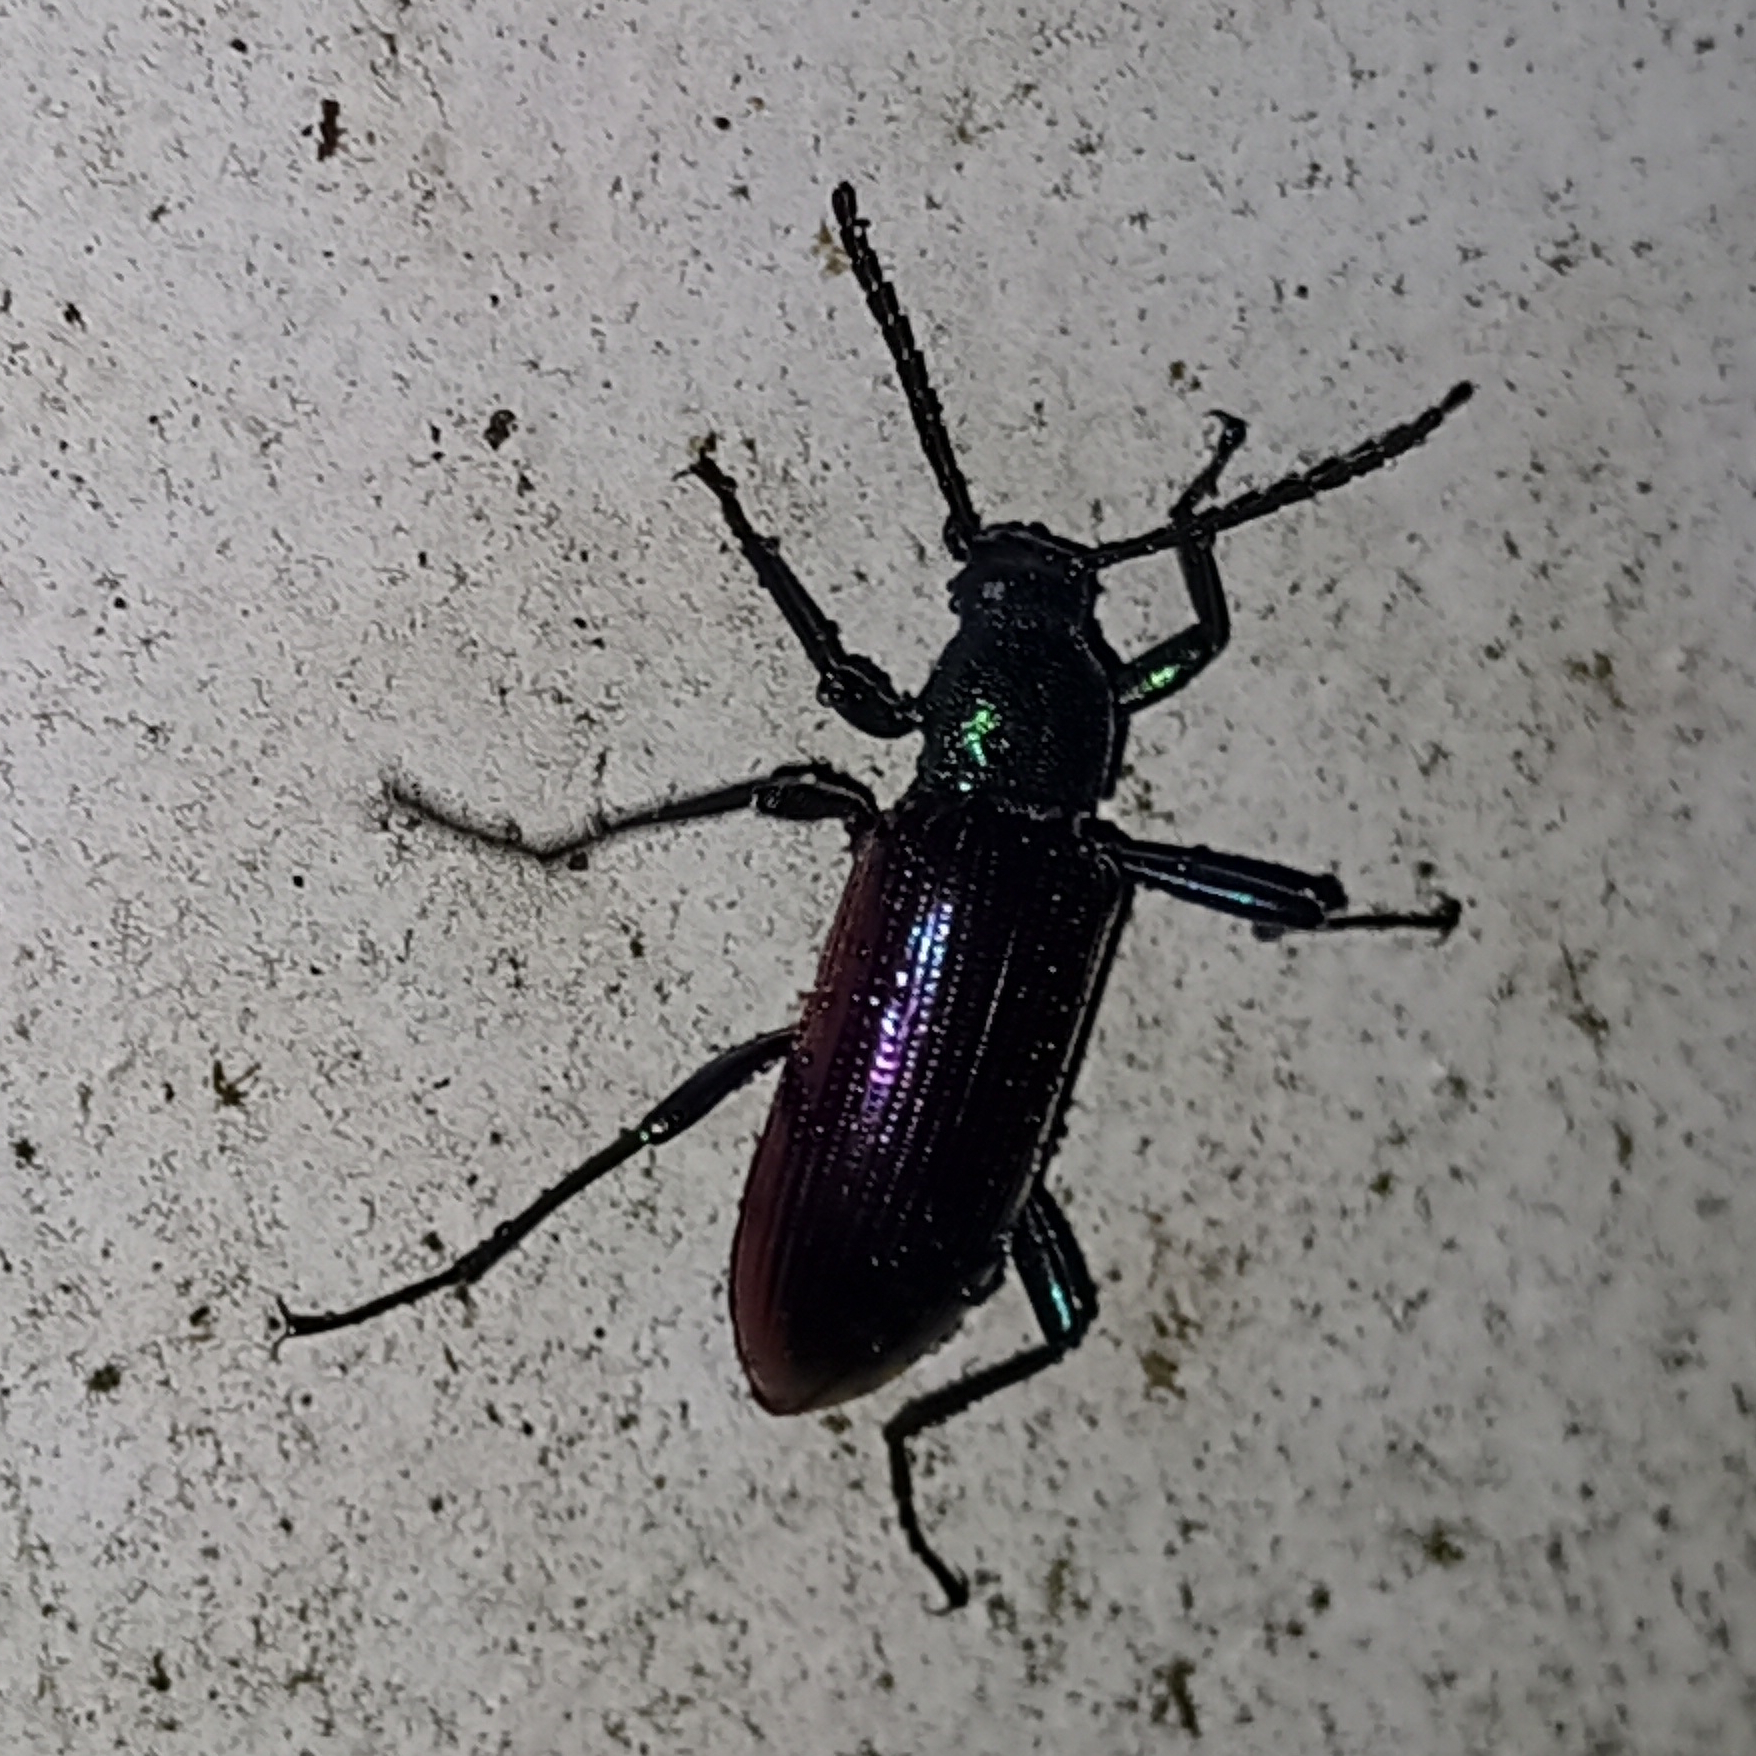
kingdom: Animalia
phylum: Arthropoda
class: Insecta
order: Coleoptera
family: Tenebrionidae
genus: Strongylium
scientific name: Strongylium
